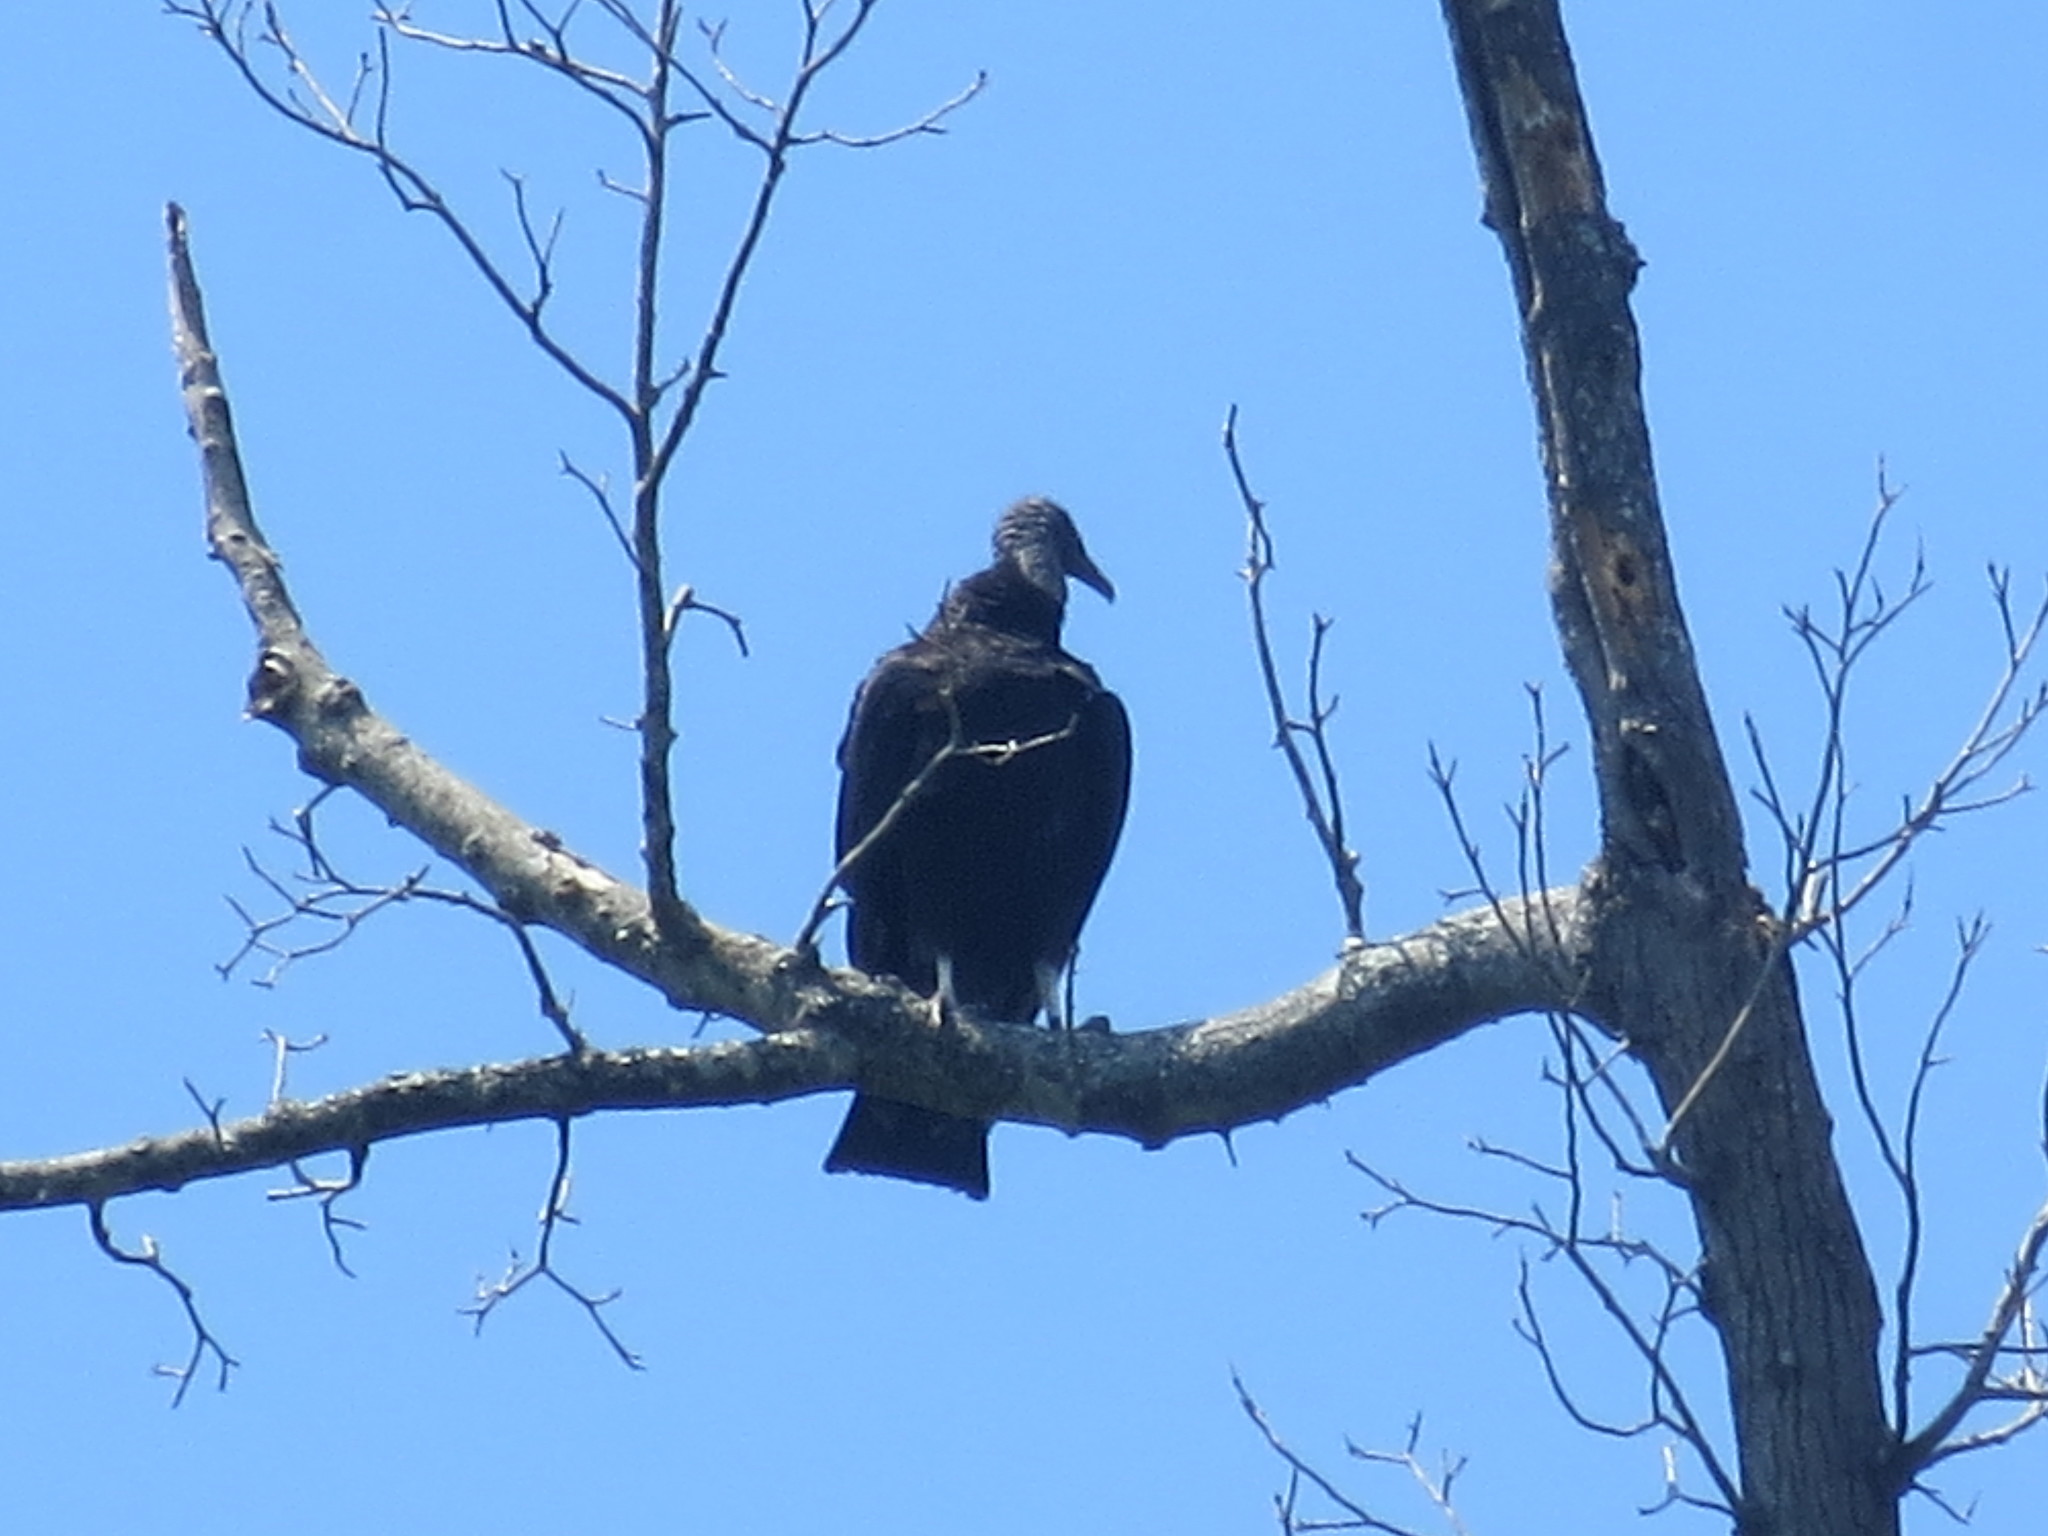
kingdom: Animalia
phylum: Chordata
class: Aves
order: Accipitriformes
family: Cathartidae
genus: Coragyps
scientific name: Coragyps atratus
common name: Black vulture
